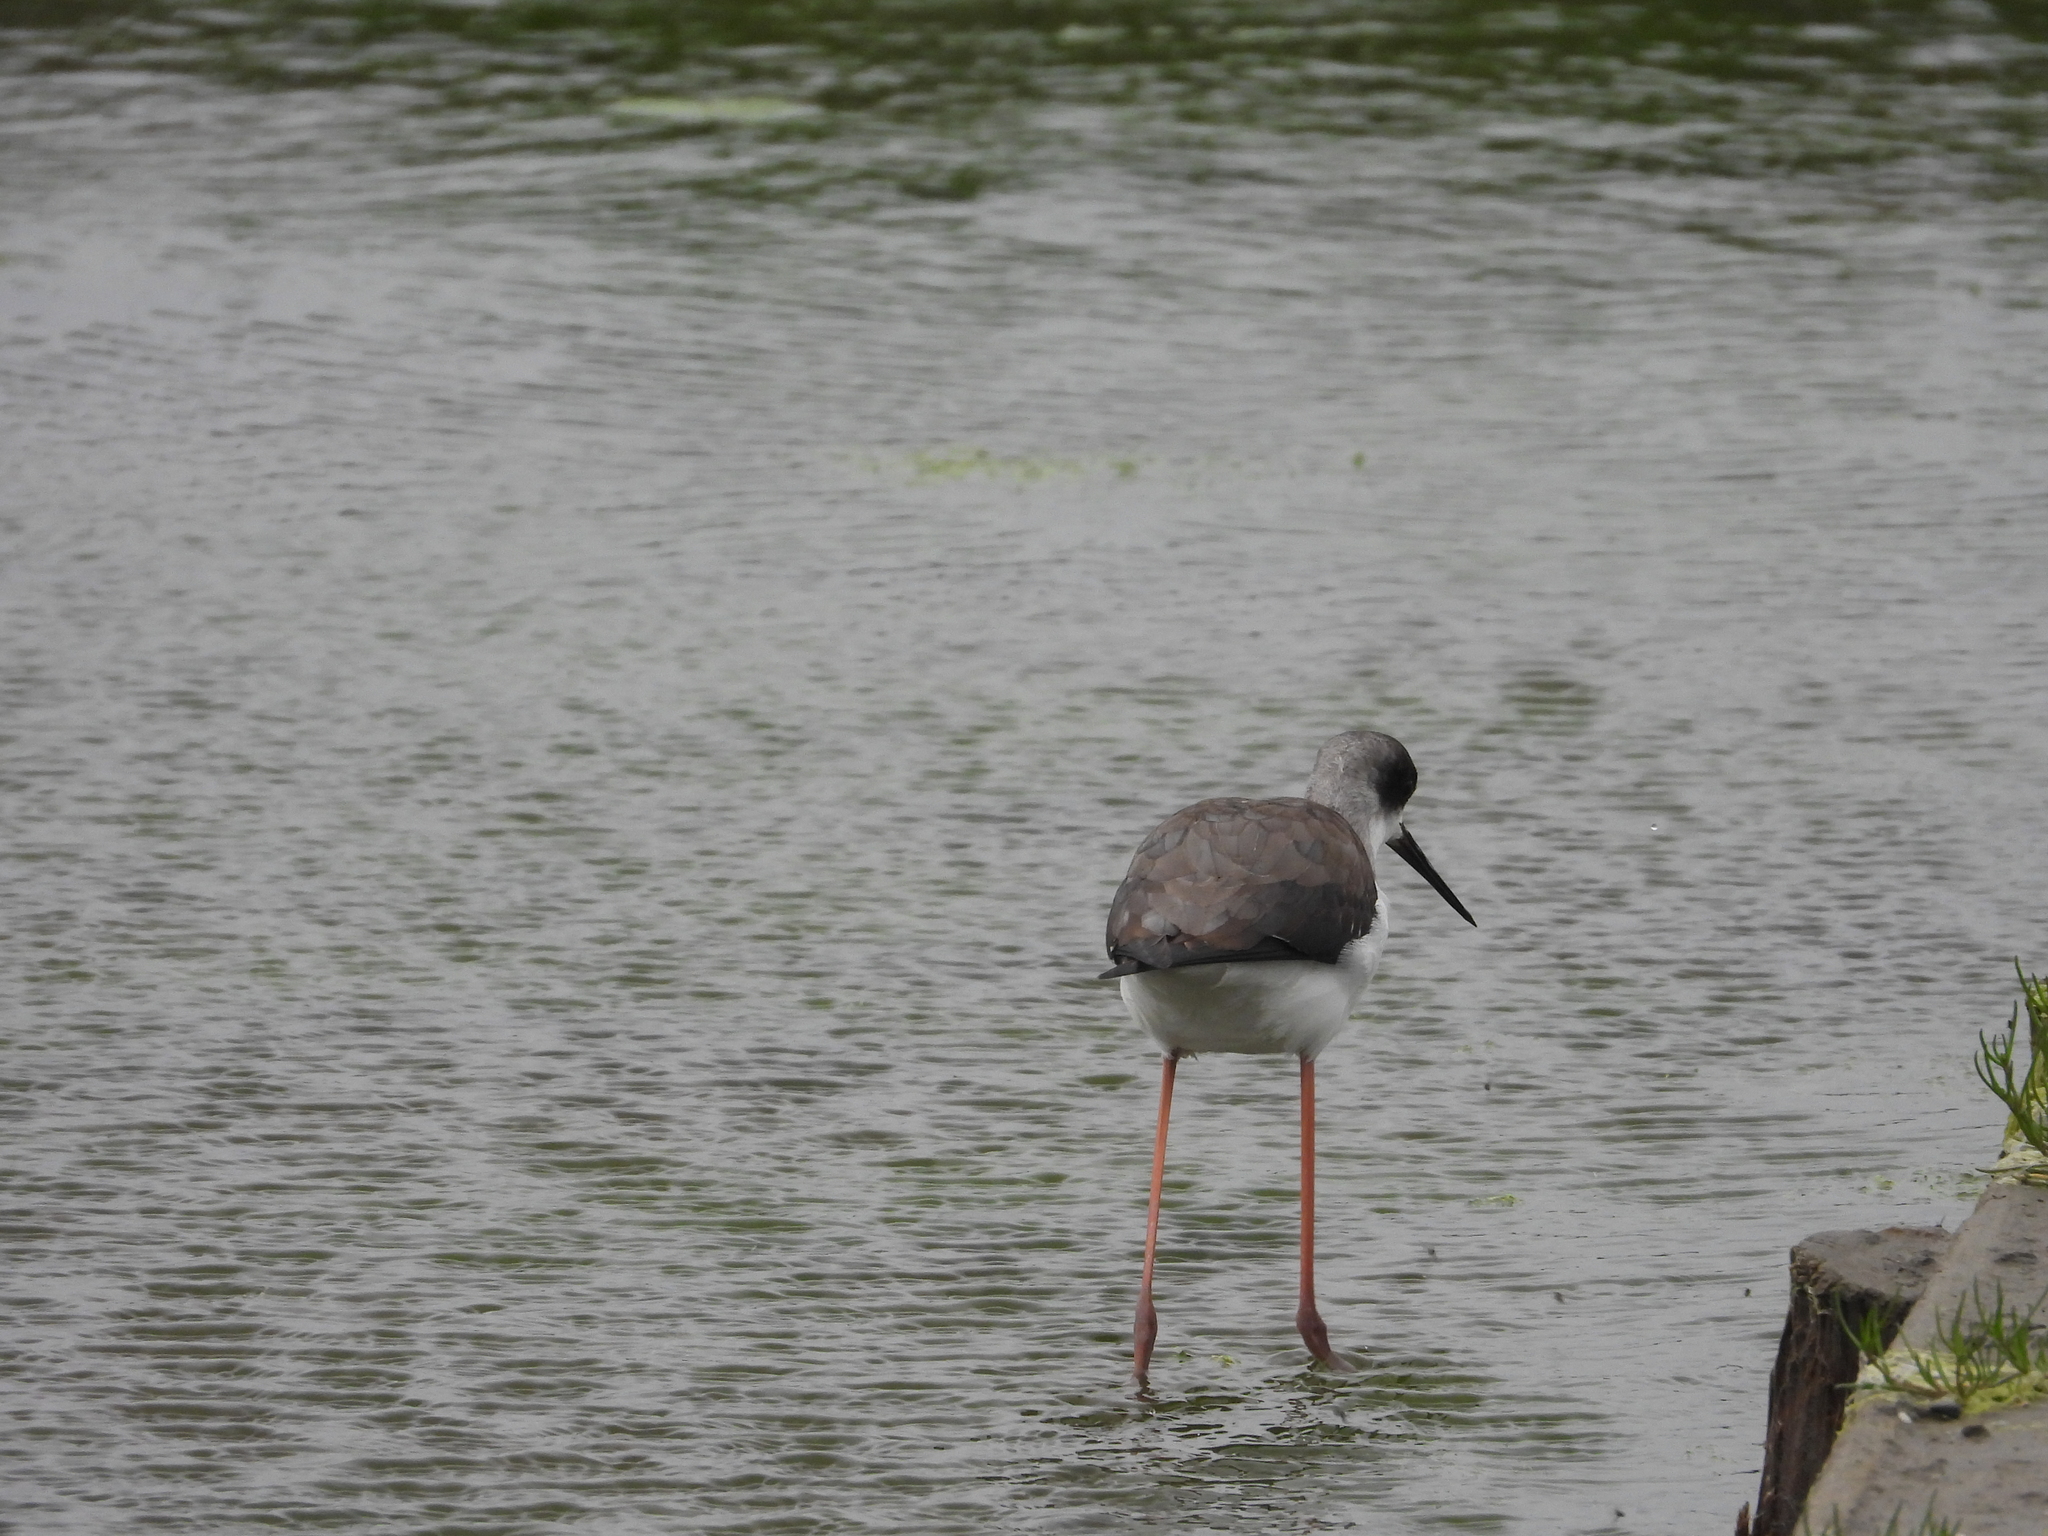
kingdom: Animalia
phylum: Chordata
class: Aves
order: Charadriiformes
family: Recurvirostridae
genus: Himantopus
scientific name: Himantopus himantopus
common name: Black-winged stilt
